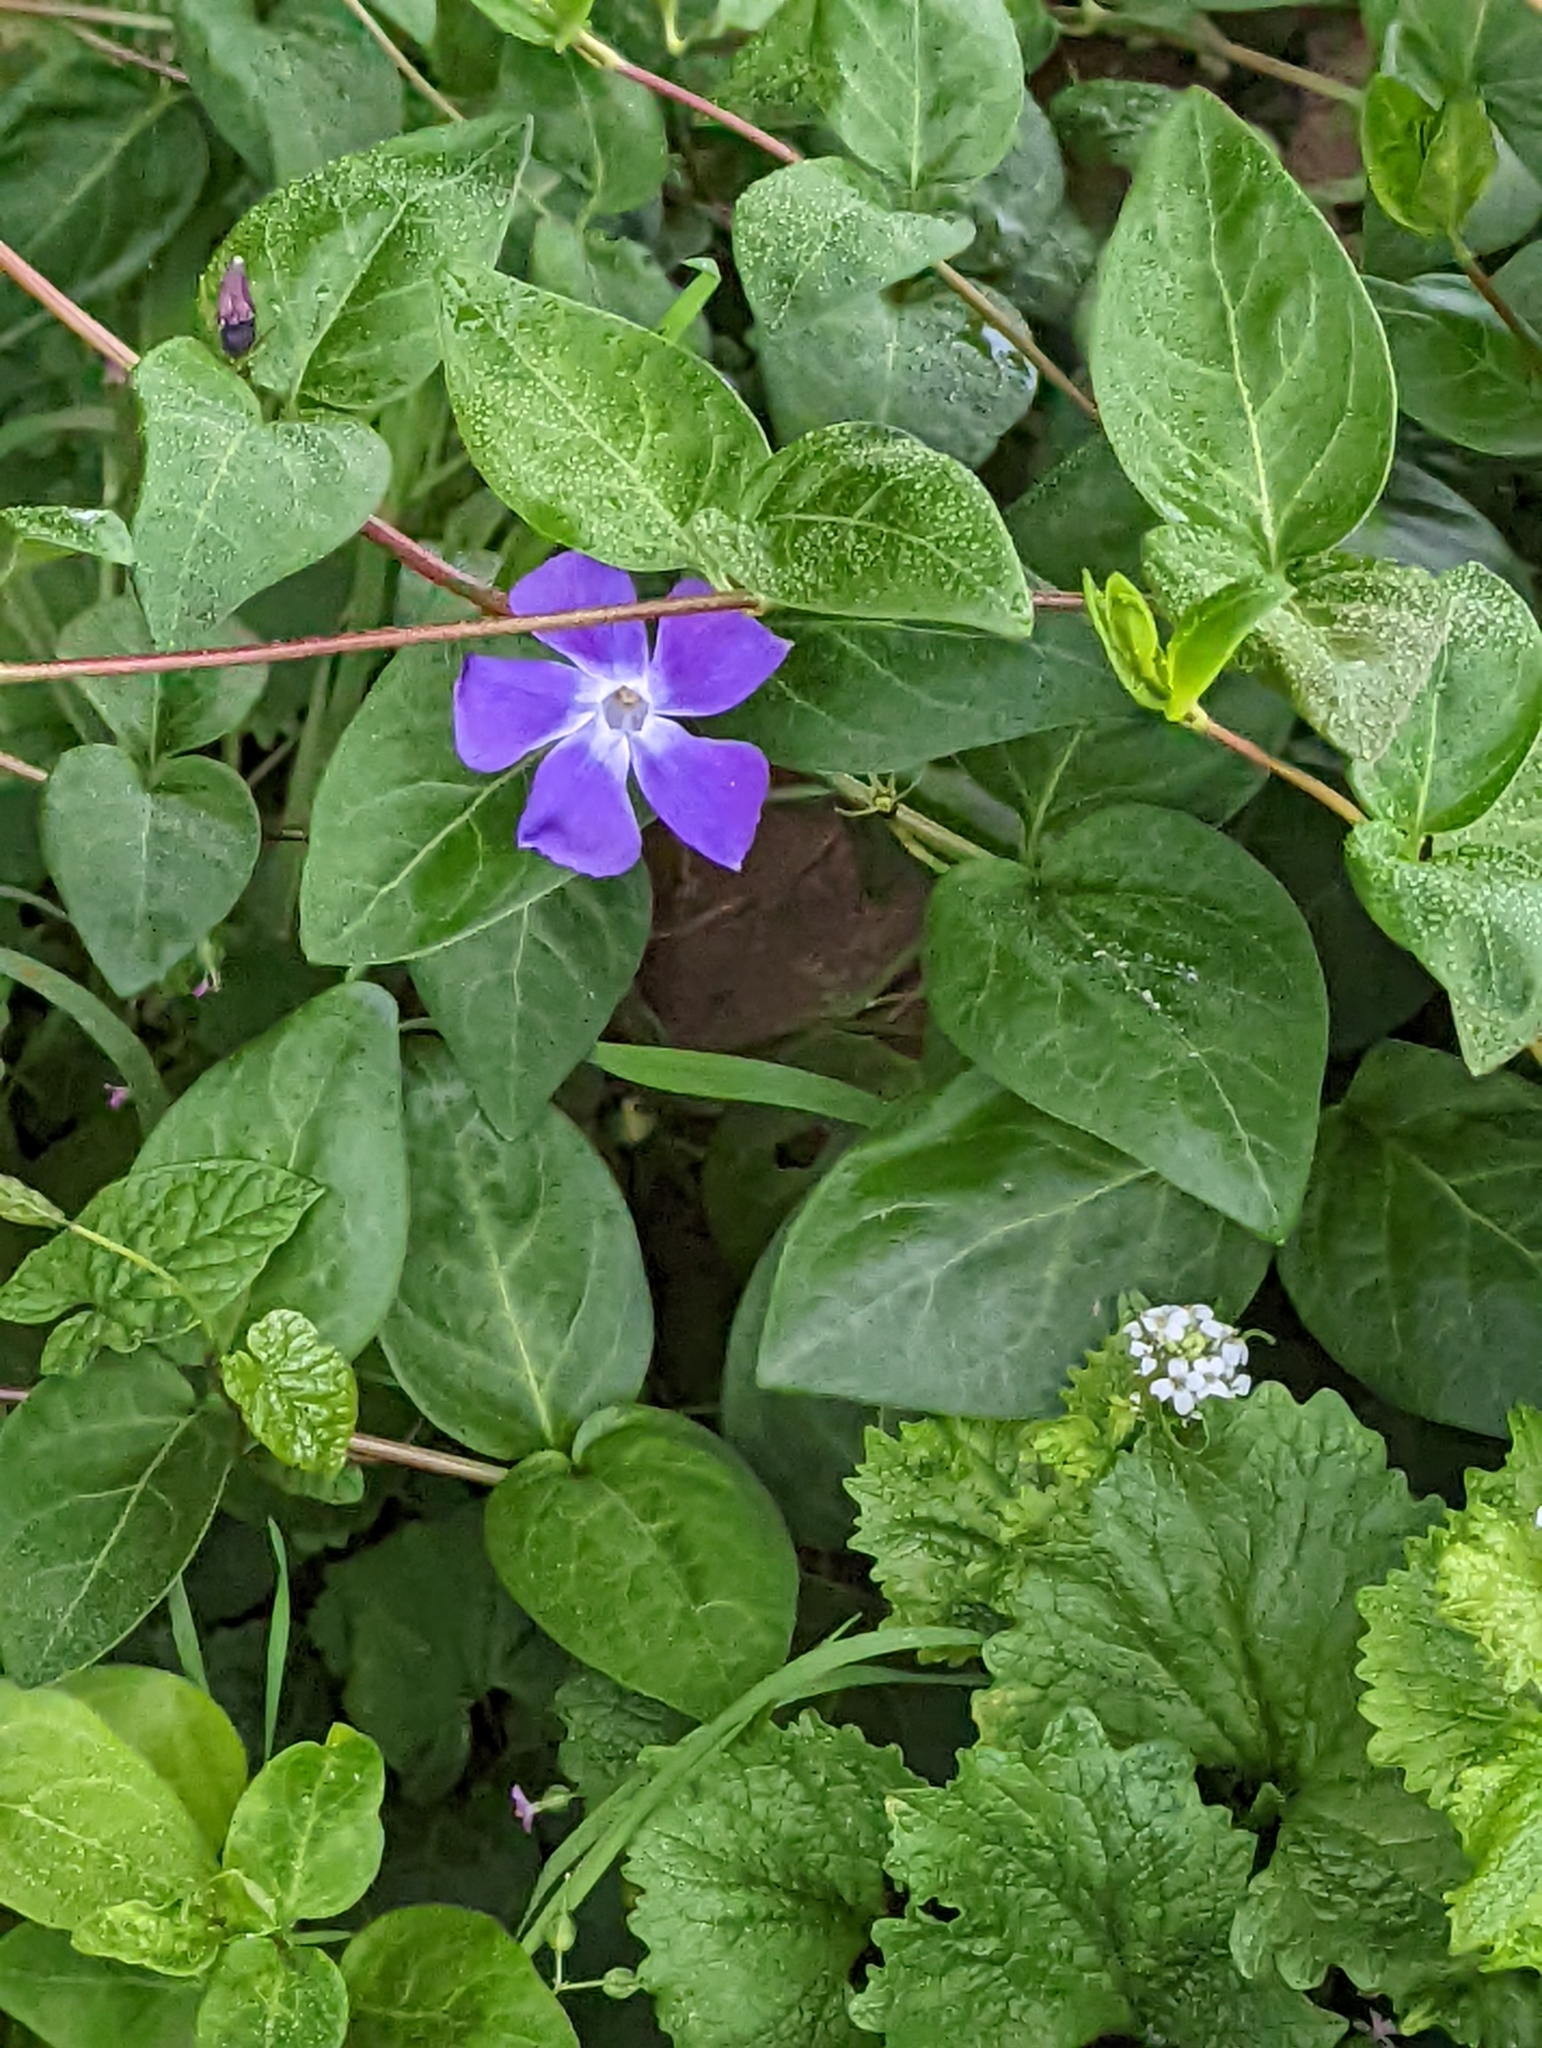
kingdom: Plantae
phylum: Tracheophyta
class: Magnoliopsida
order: Gentianales
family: Apocynaceae
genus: Vinca
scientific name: Vinca major
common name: Greater periwinkle
